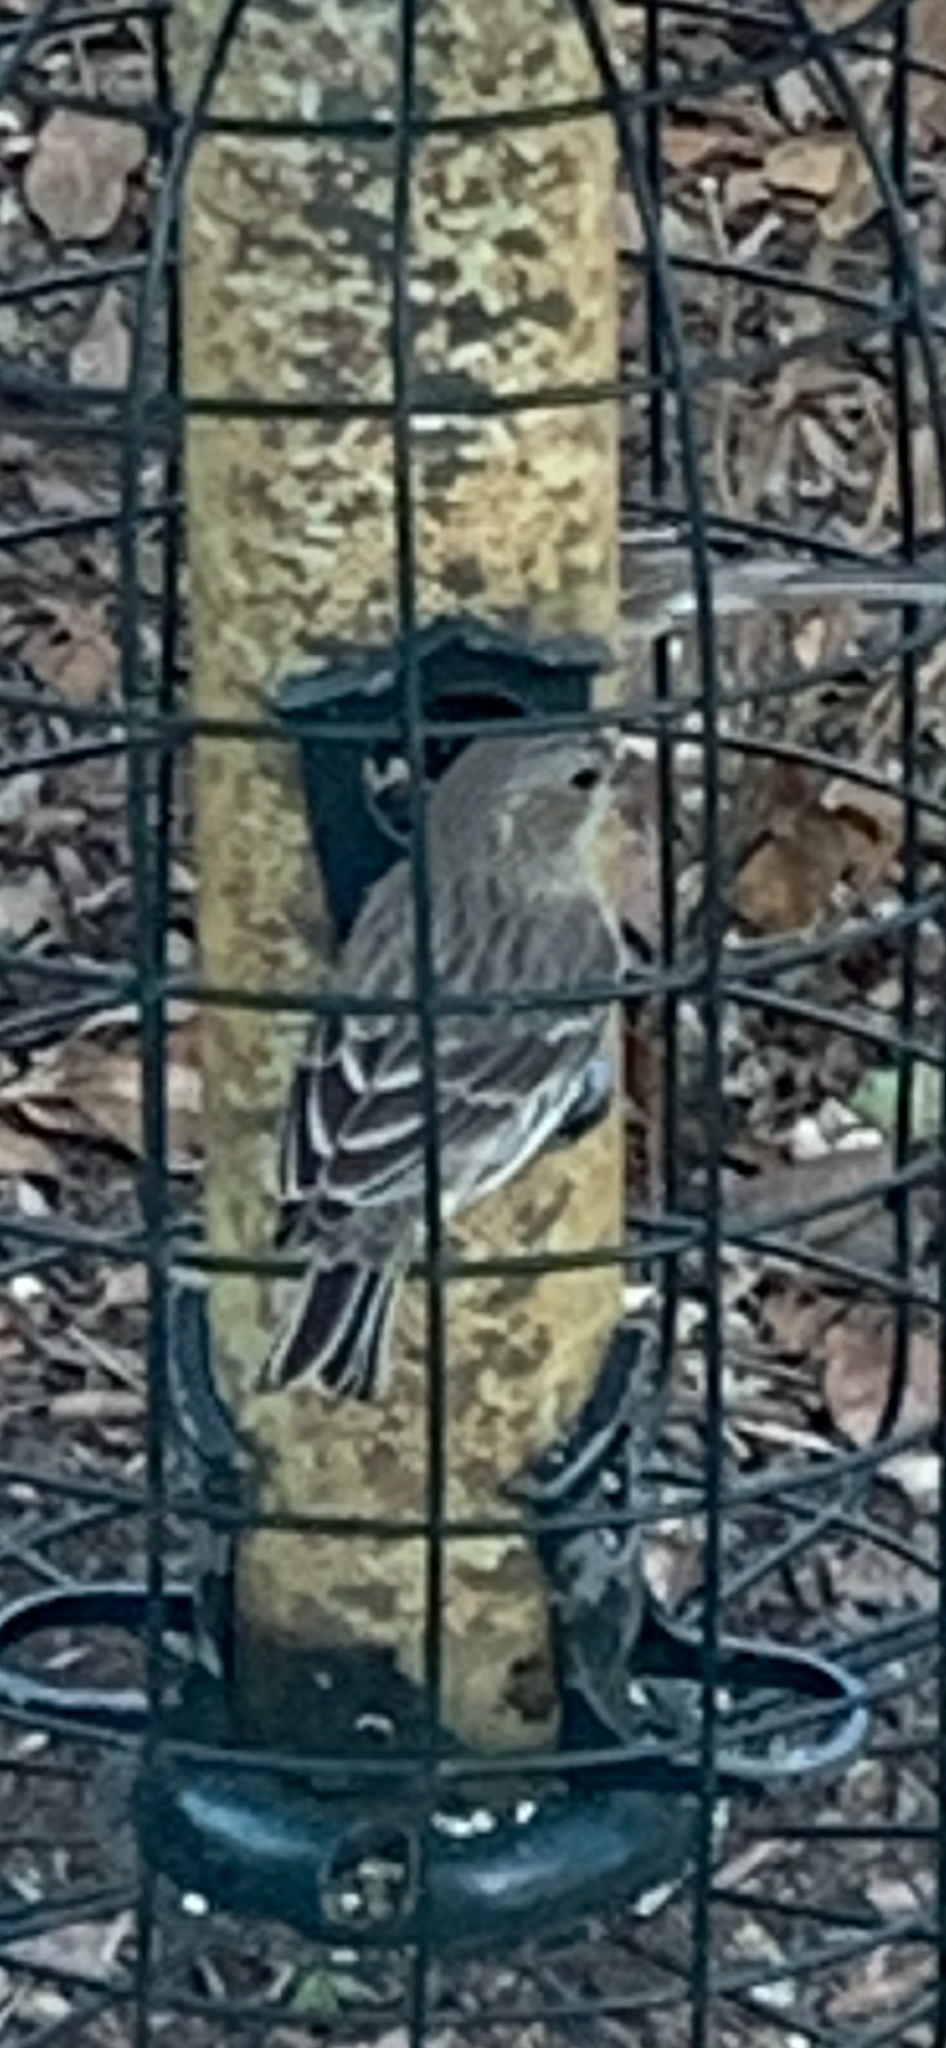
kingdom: Animalia
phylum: Chordata
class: Aves
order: Passeriformes
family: Fringillidae
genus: Haemorhous
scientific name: Haemorhous mexicanus
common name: House finch
